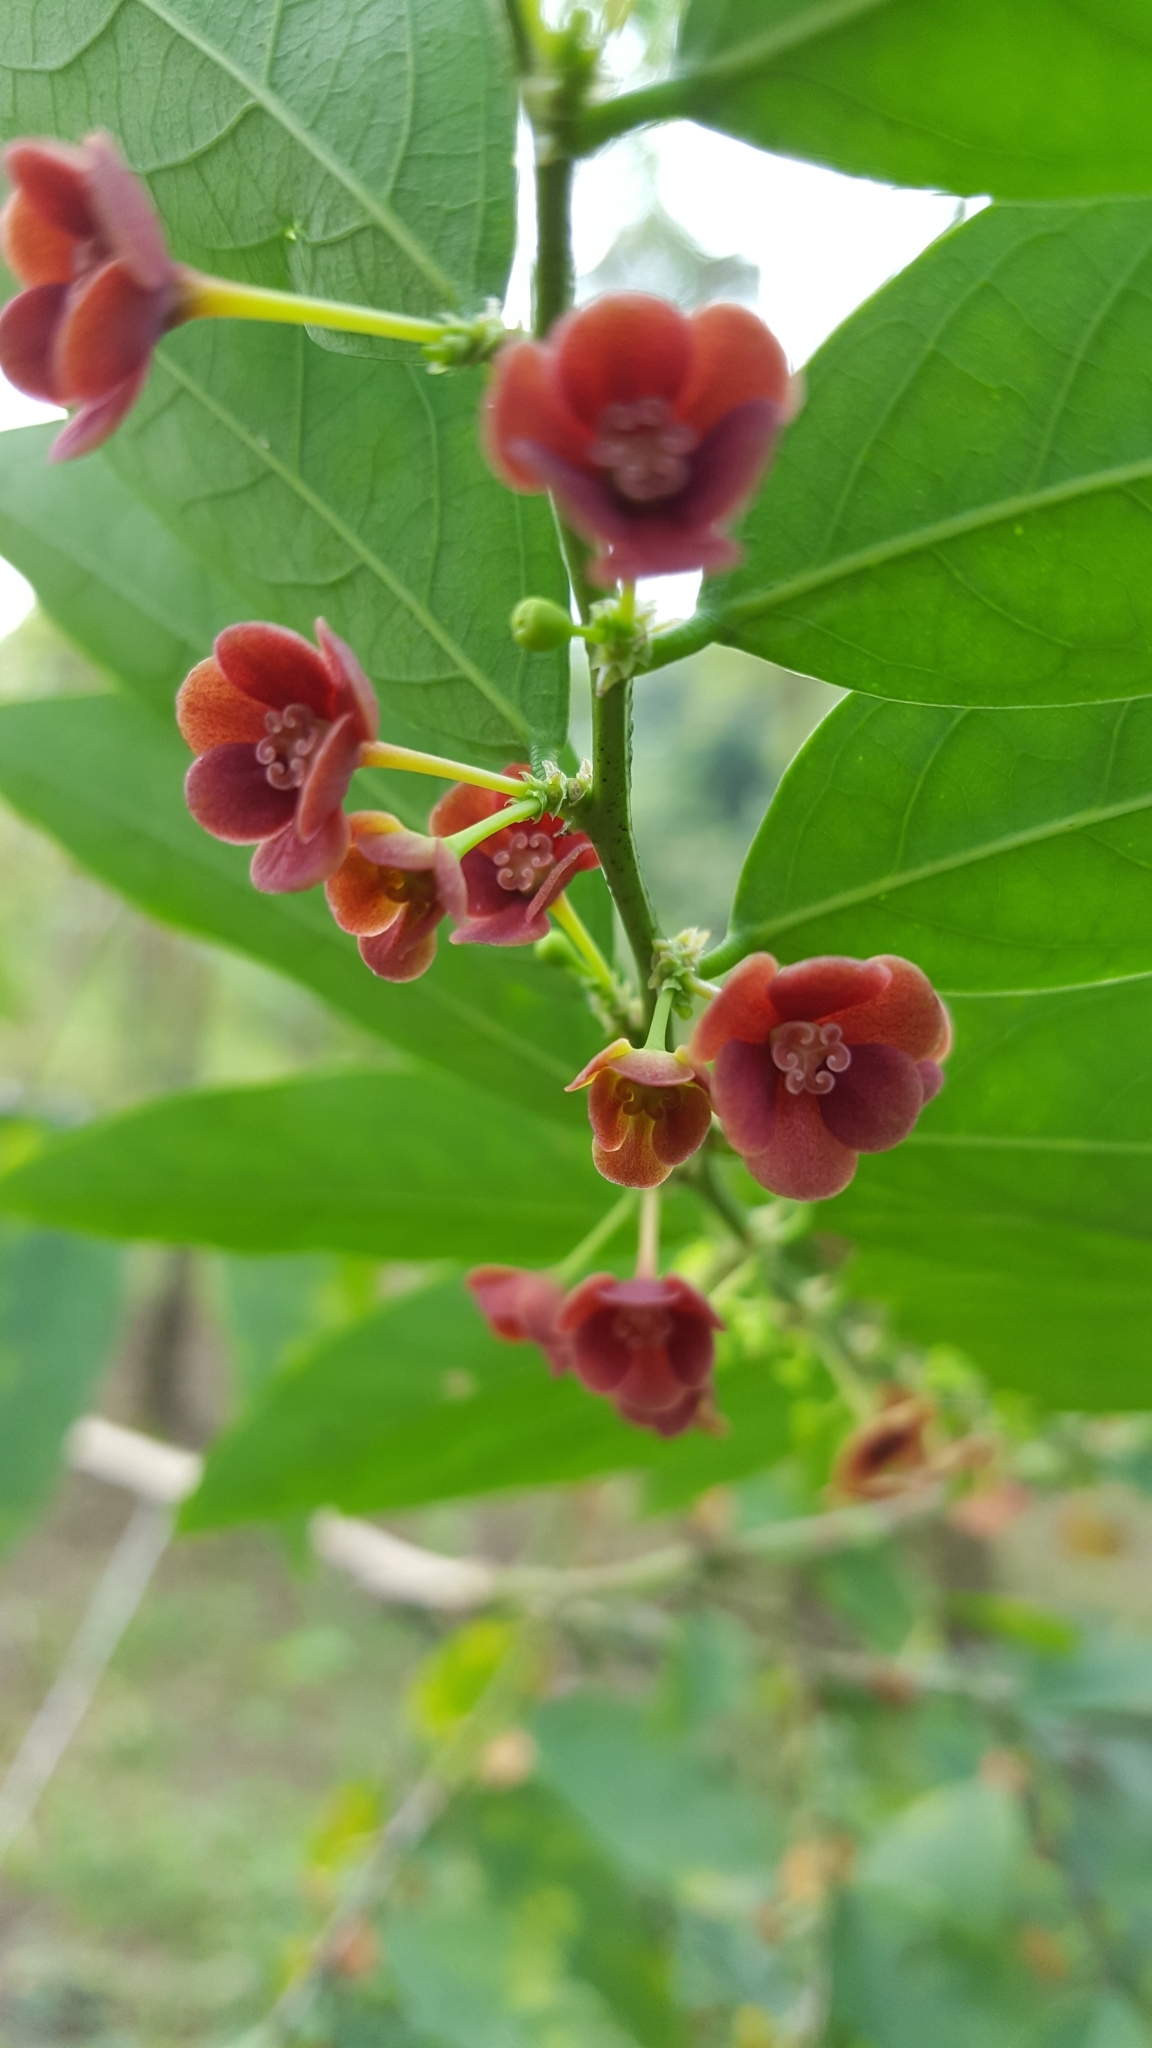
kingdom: Plantae
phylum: Tracheophyta
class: Magnoliopsida
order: Malpighiales
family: Phyllanthaceae
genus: Breynia
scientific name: Breynia androgyna
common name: Star gooseberry
